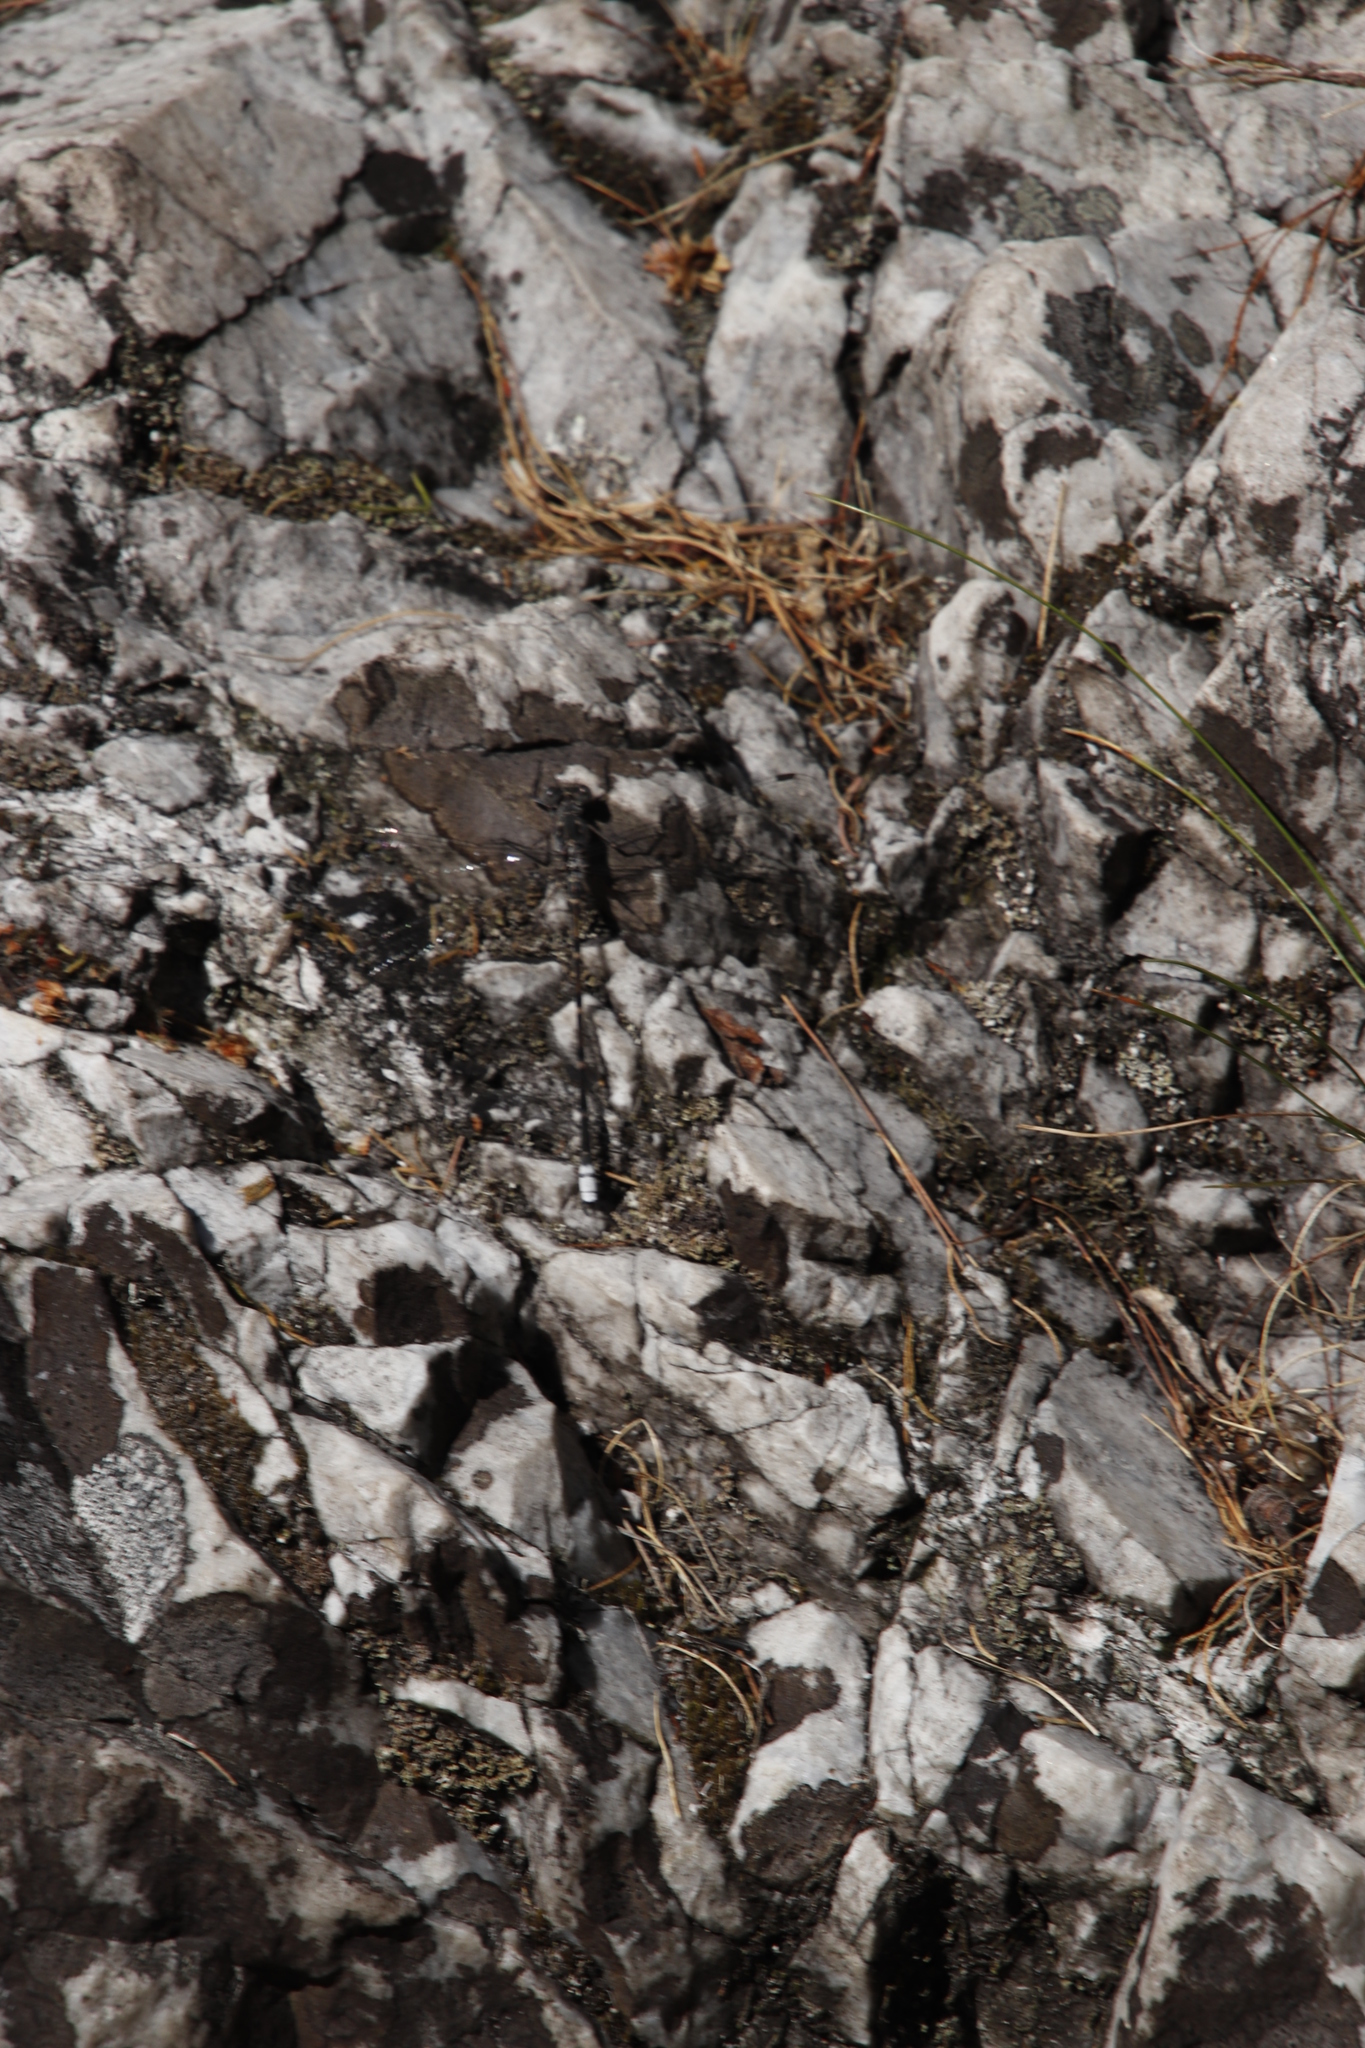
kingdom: Animalia
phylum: Arthropoda
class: Insecta
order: Odonata
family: Synlestidae
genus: Ecchlorolestes
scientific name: Ecchlorolestes peringueyi
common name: Marbled malachite
